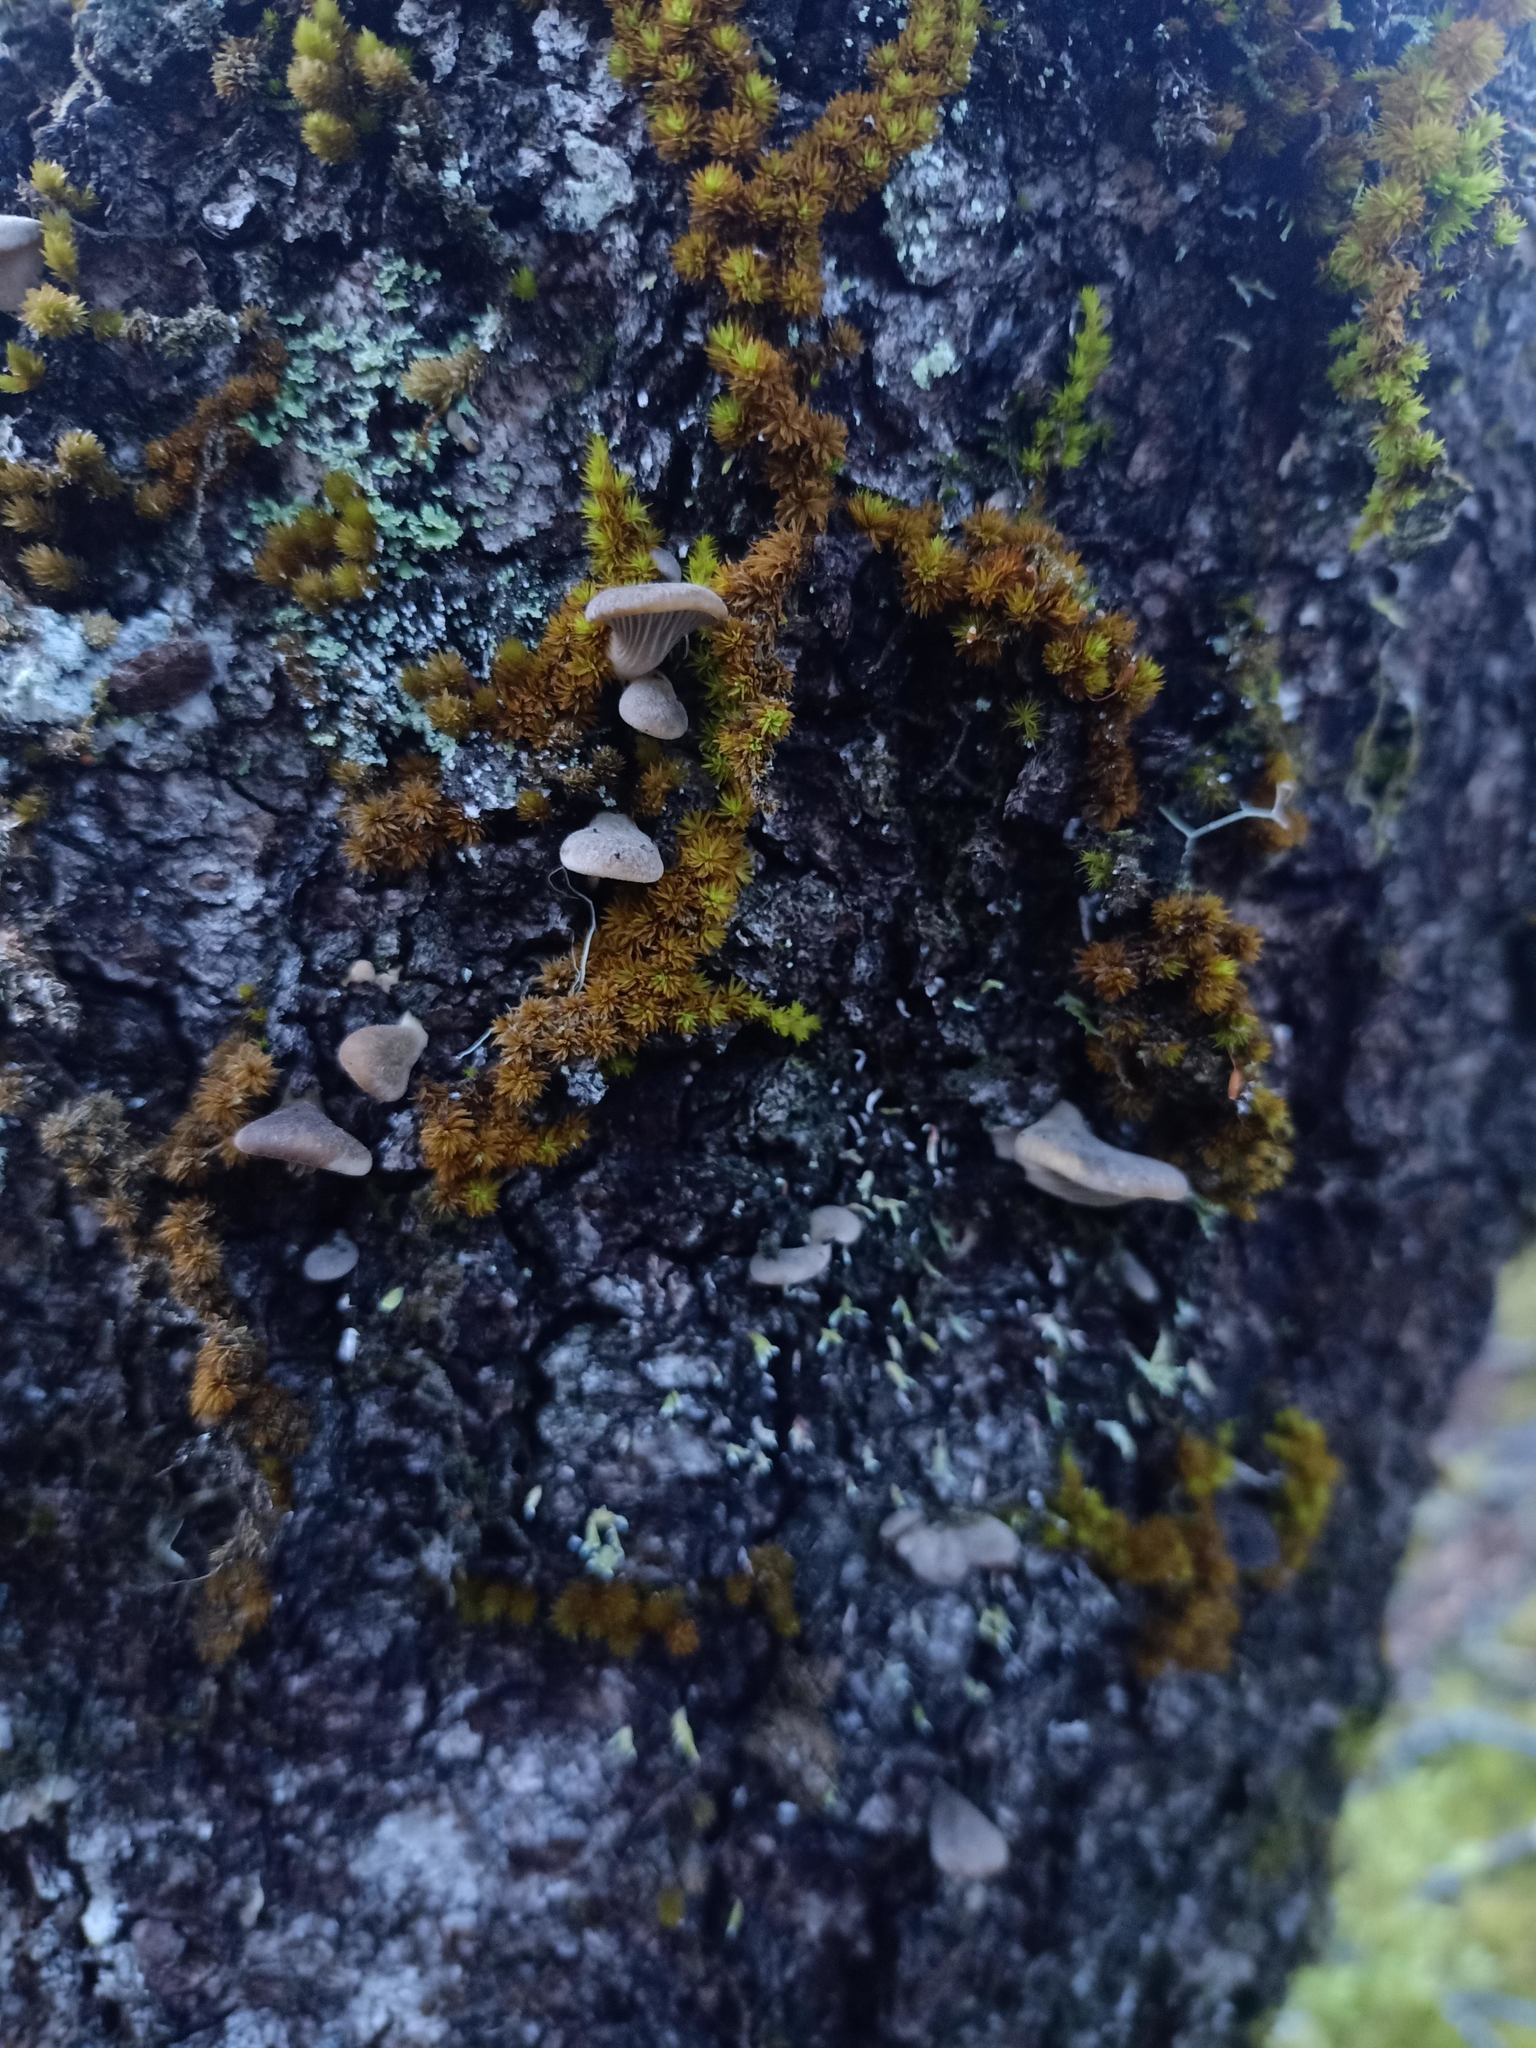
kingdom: Fungi
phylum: Basidiomycota
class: Agaricomycetes
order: Agaricales
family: Pleurotaceae
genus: Pleurotus
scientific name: Pleurotus purpureo-olivaceus
